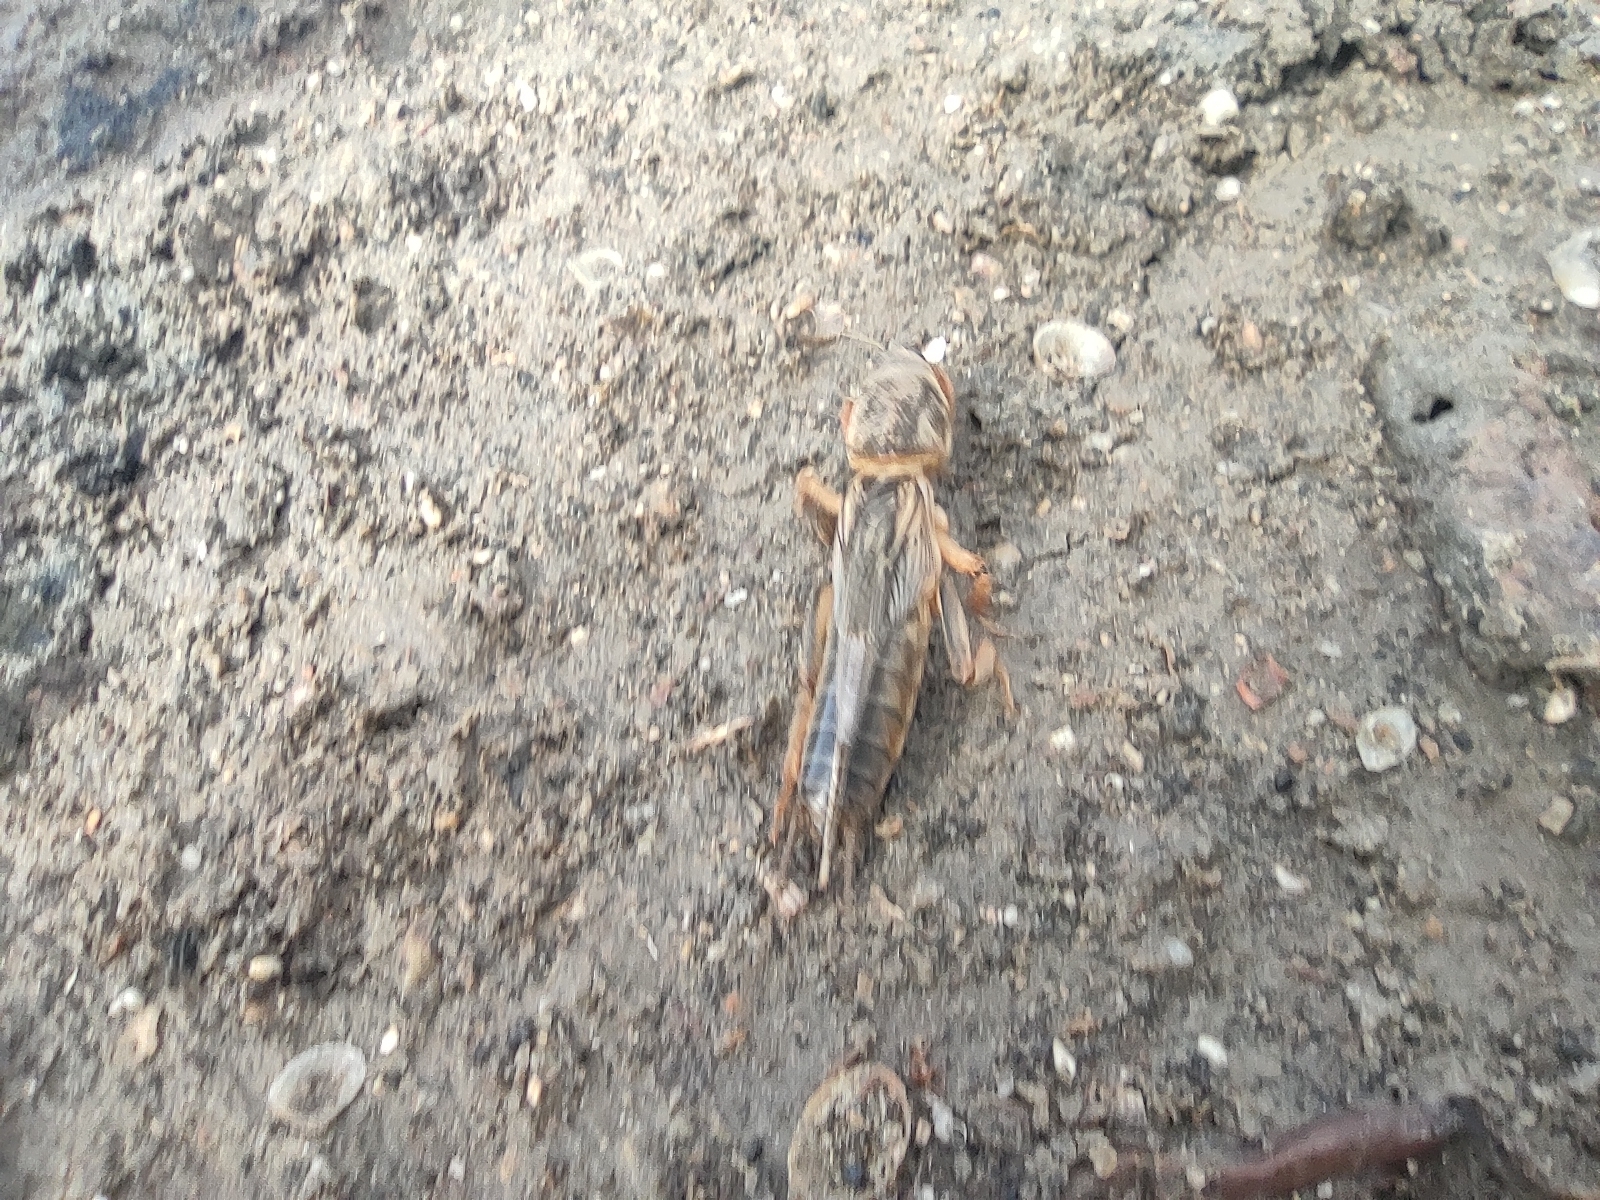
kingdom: Animalia
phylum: Arthropoda
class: Insecta
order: Orthoptera
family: Gryllotalpidae
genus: Gryllotalpa
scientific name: Gryllotalpa gryllotalpa
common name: European mole cricket
